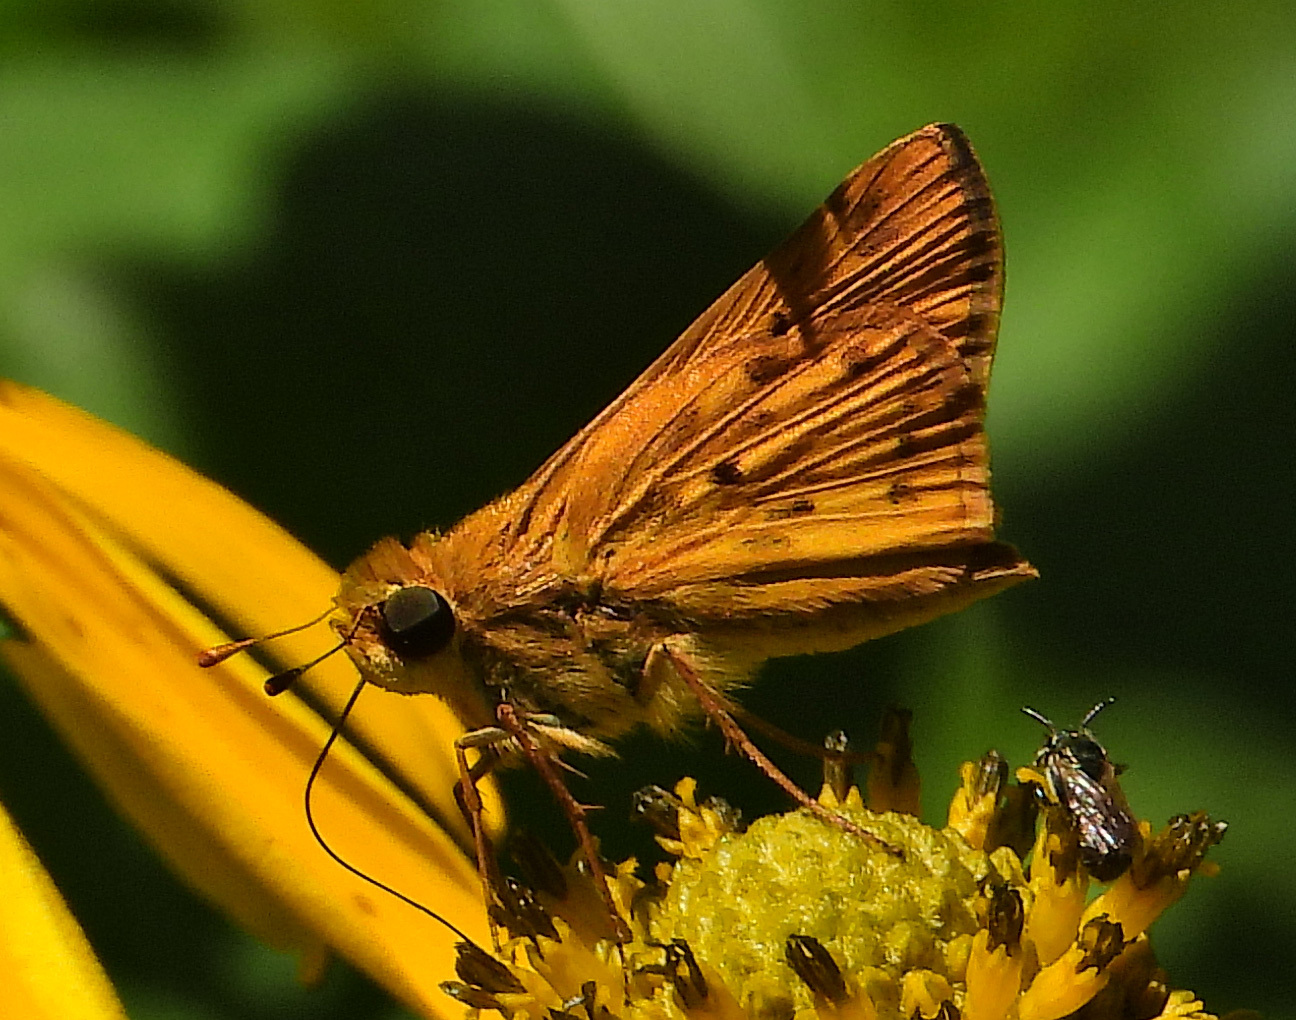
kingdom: Animalia
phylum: Arthropoda
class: Insecta
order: Lepidoptera
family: Hesperiidae
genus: Hylephila
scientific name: Hylephila phyleus
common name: Fiery skipper
